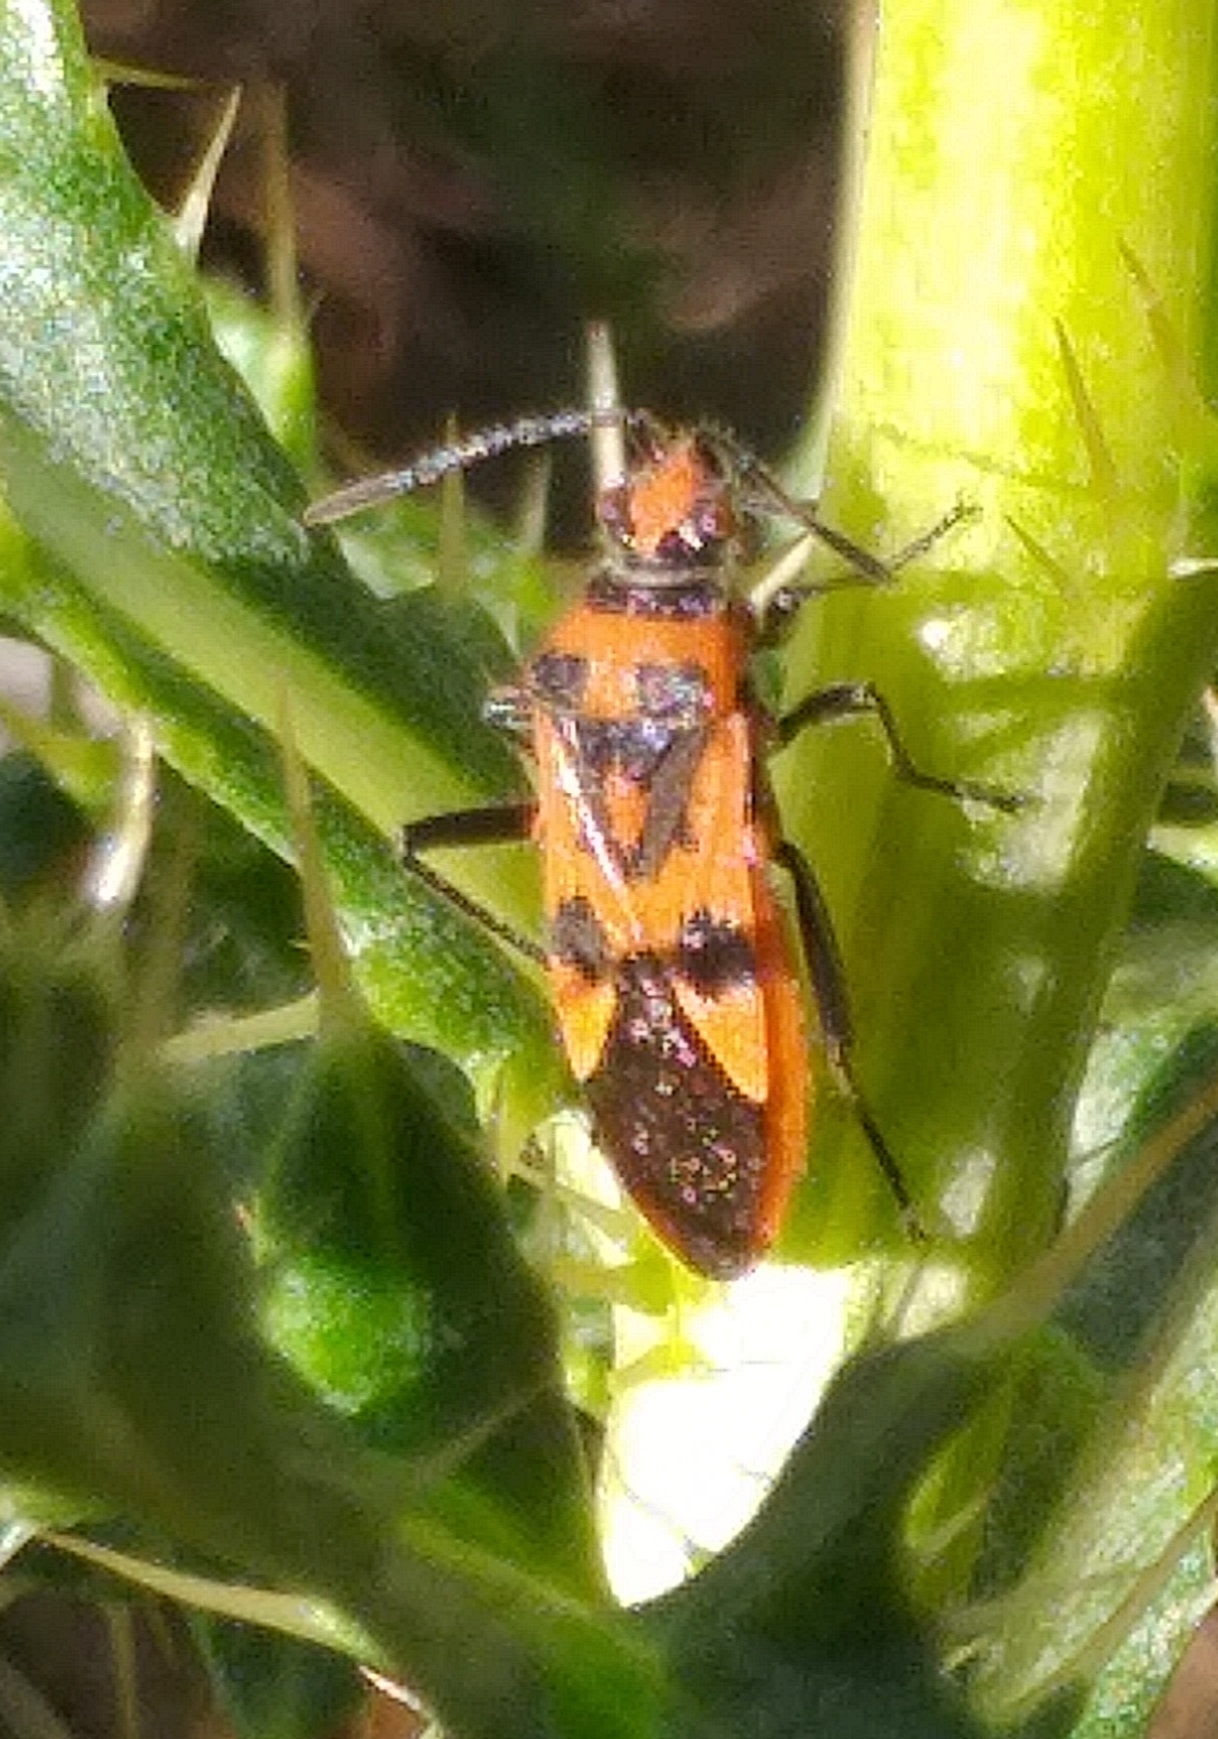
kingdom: Animalia
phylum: Arthropoda
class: Insecta
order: Hemiptera
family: Rhopalidae
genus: Corizus
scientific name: Corizus hyoscyami
